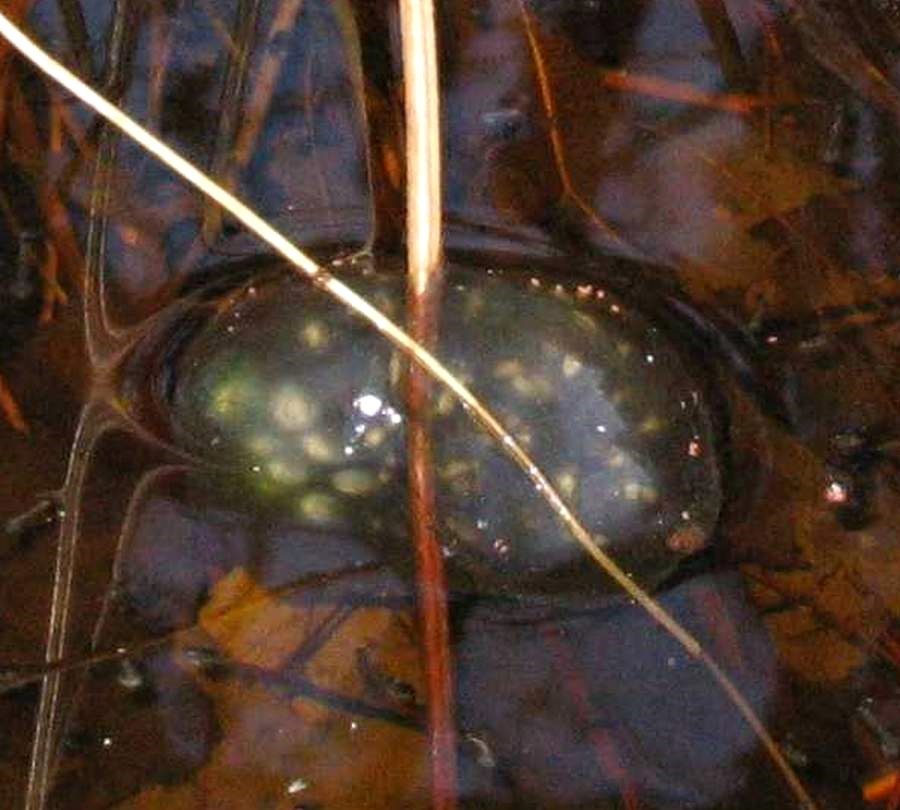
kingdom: Animalia
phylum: Chordata
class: Amphibia
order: Caudata
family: Ambystomatidae
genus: Ambystoma
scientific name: Ambystoma maculatum
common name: Spotted salamander
